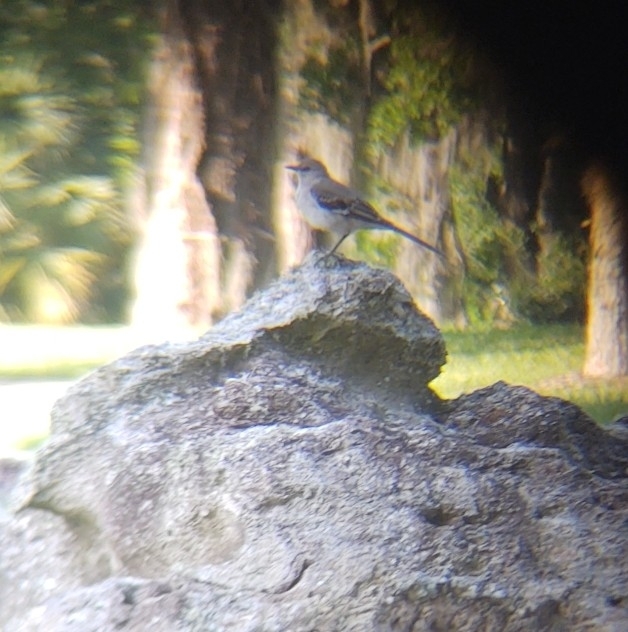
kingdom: Animalia
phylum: Chordata
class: Aves
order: Passeriformes
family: Mimidae
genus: Mimus
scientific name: Mimus polyglottos
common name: Northern mockingbird
